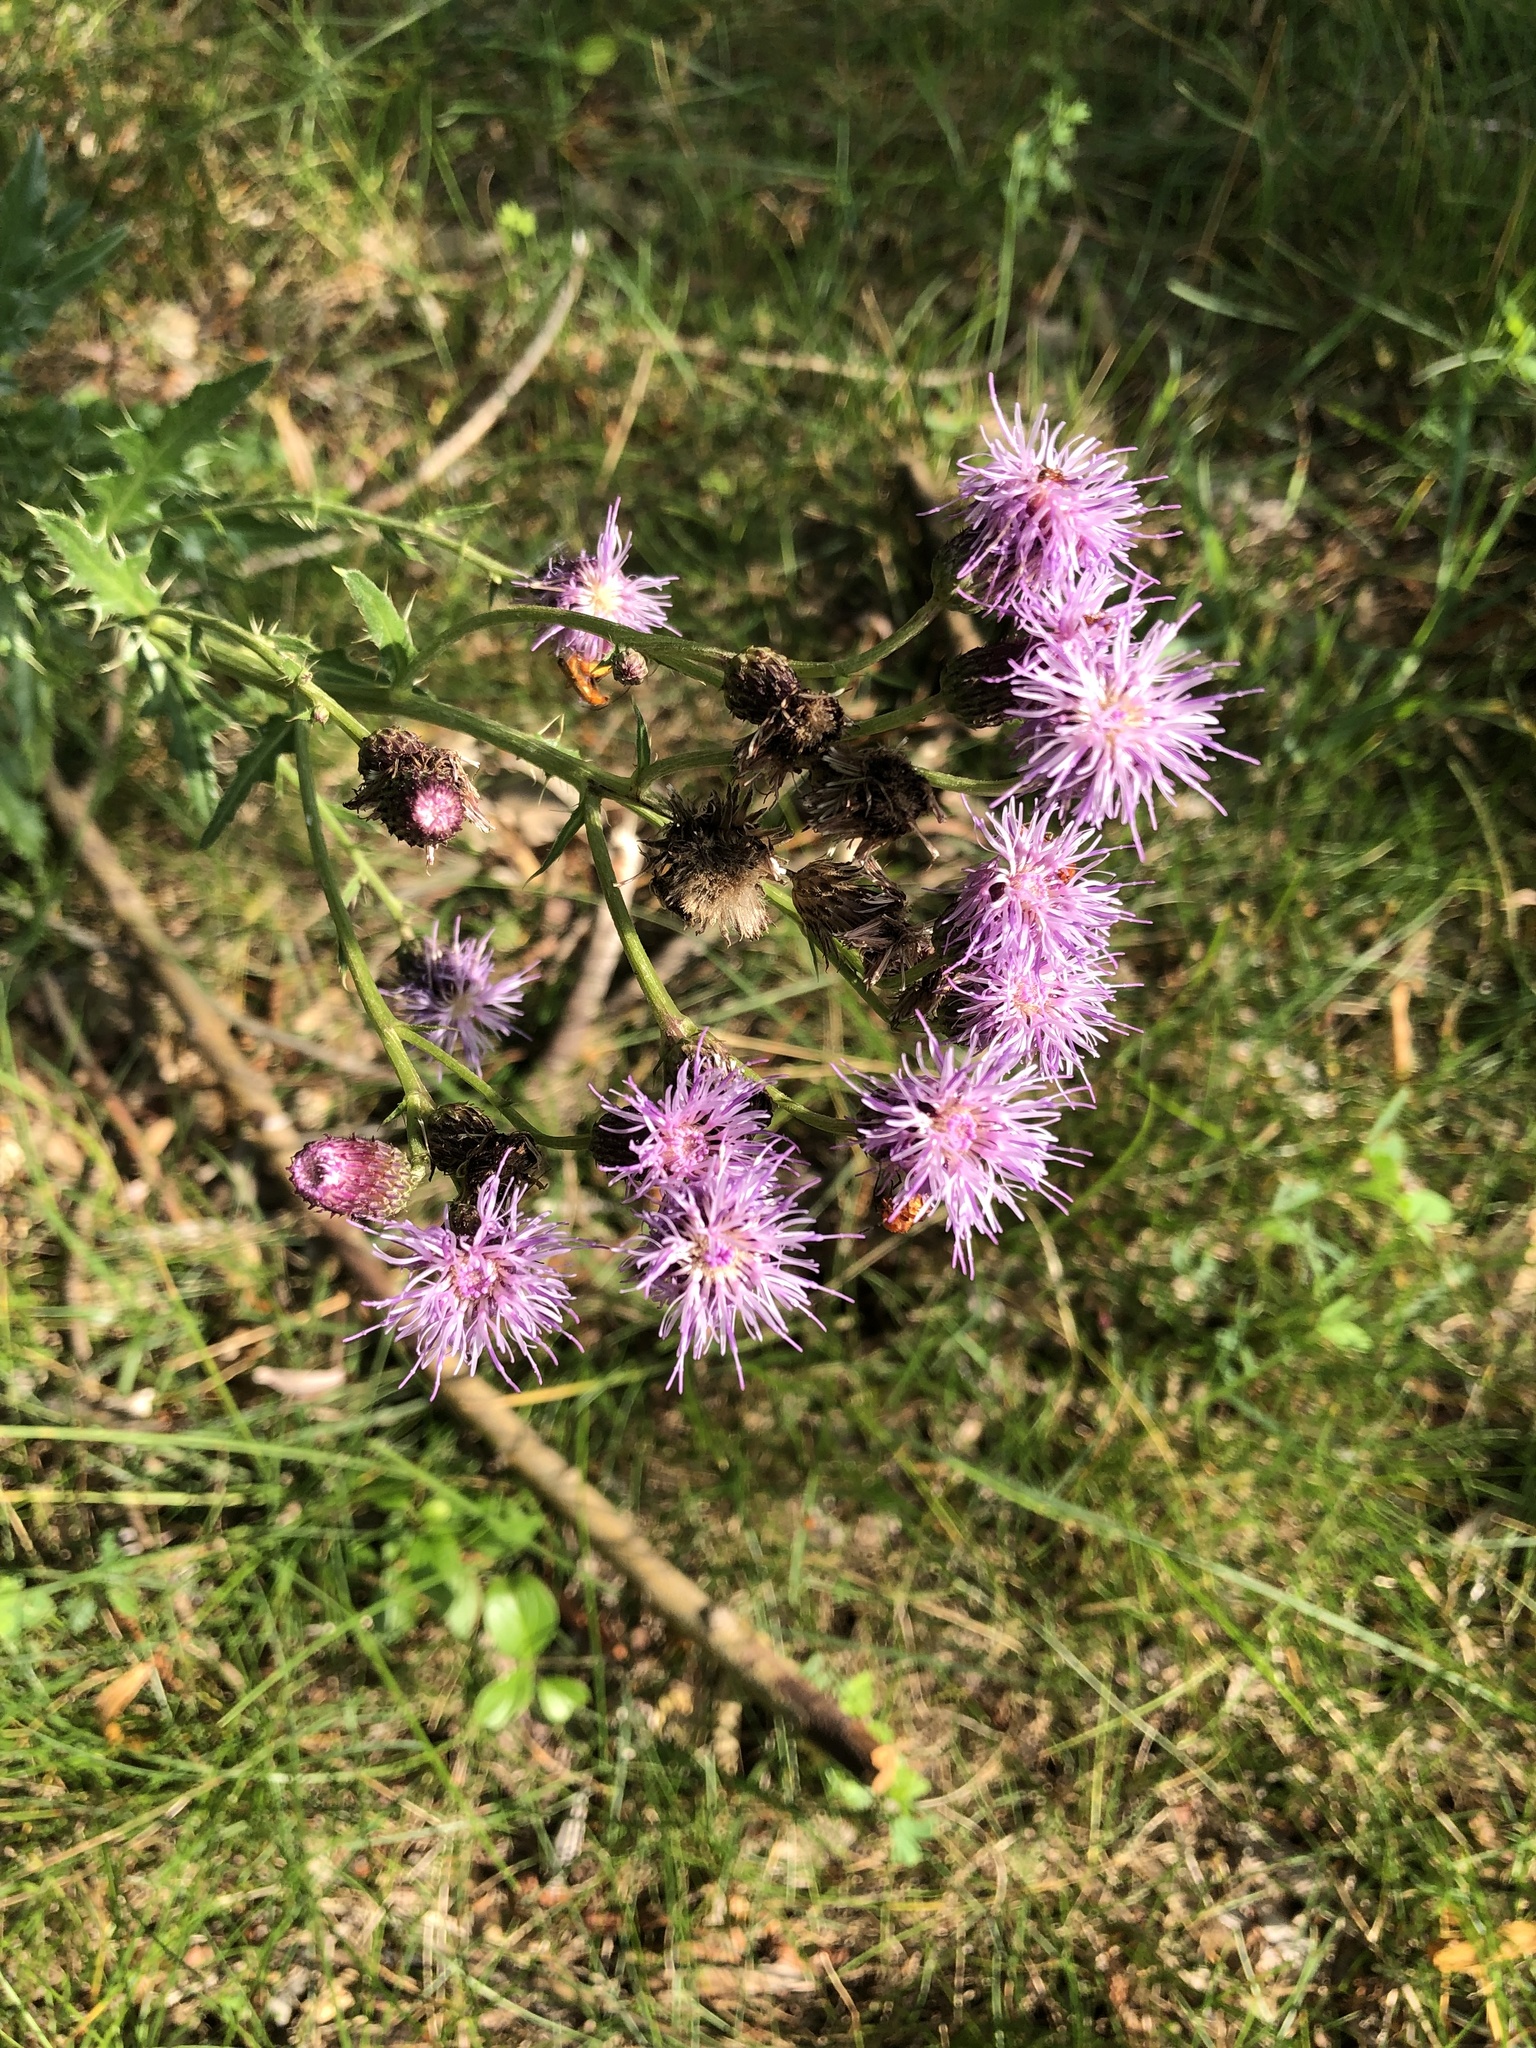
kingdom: Plantae
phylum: Tracheophyta
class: Magnoliopsida
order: Asterales
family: Asteraceae
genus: Cirsium
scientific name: Cirsium arvense
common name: Creeping thistle
